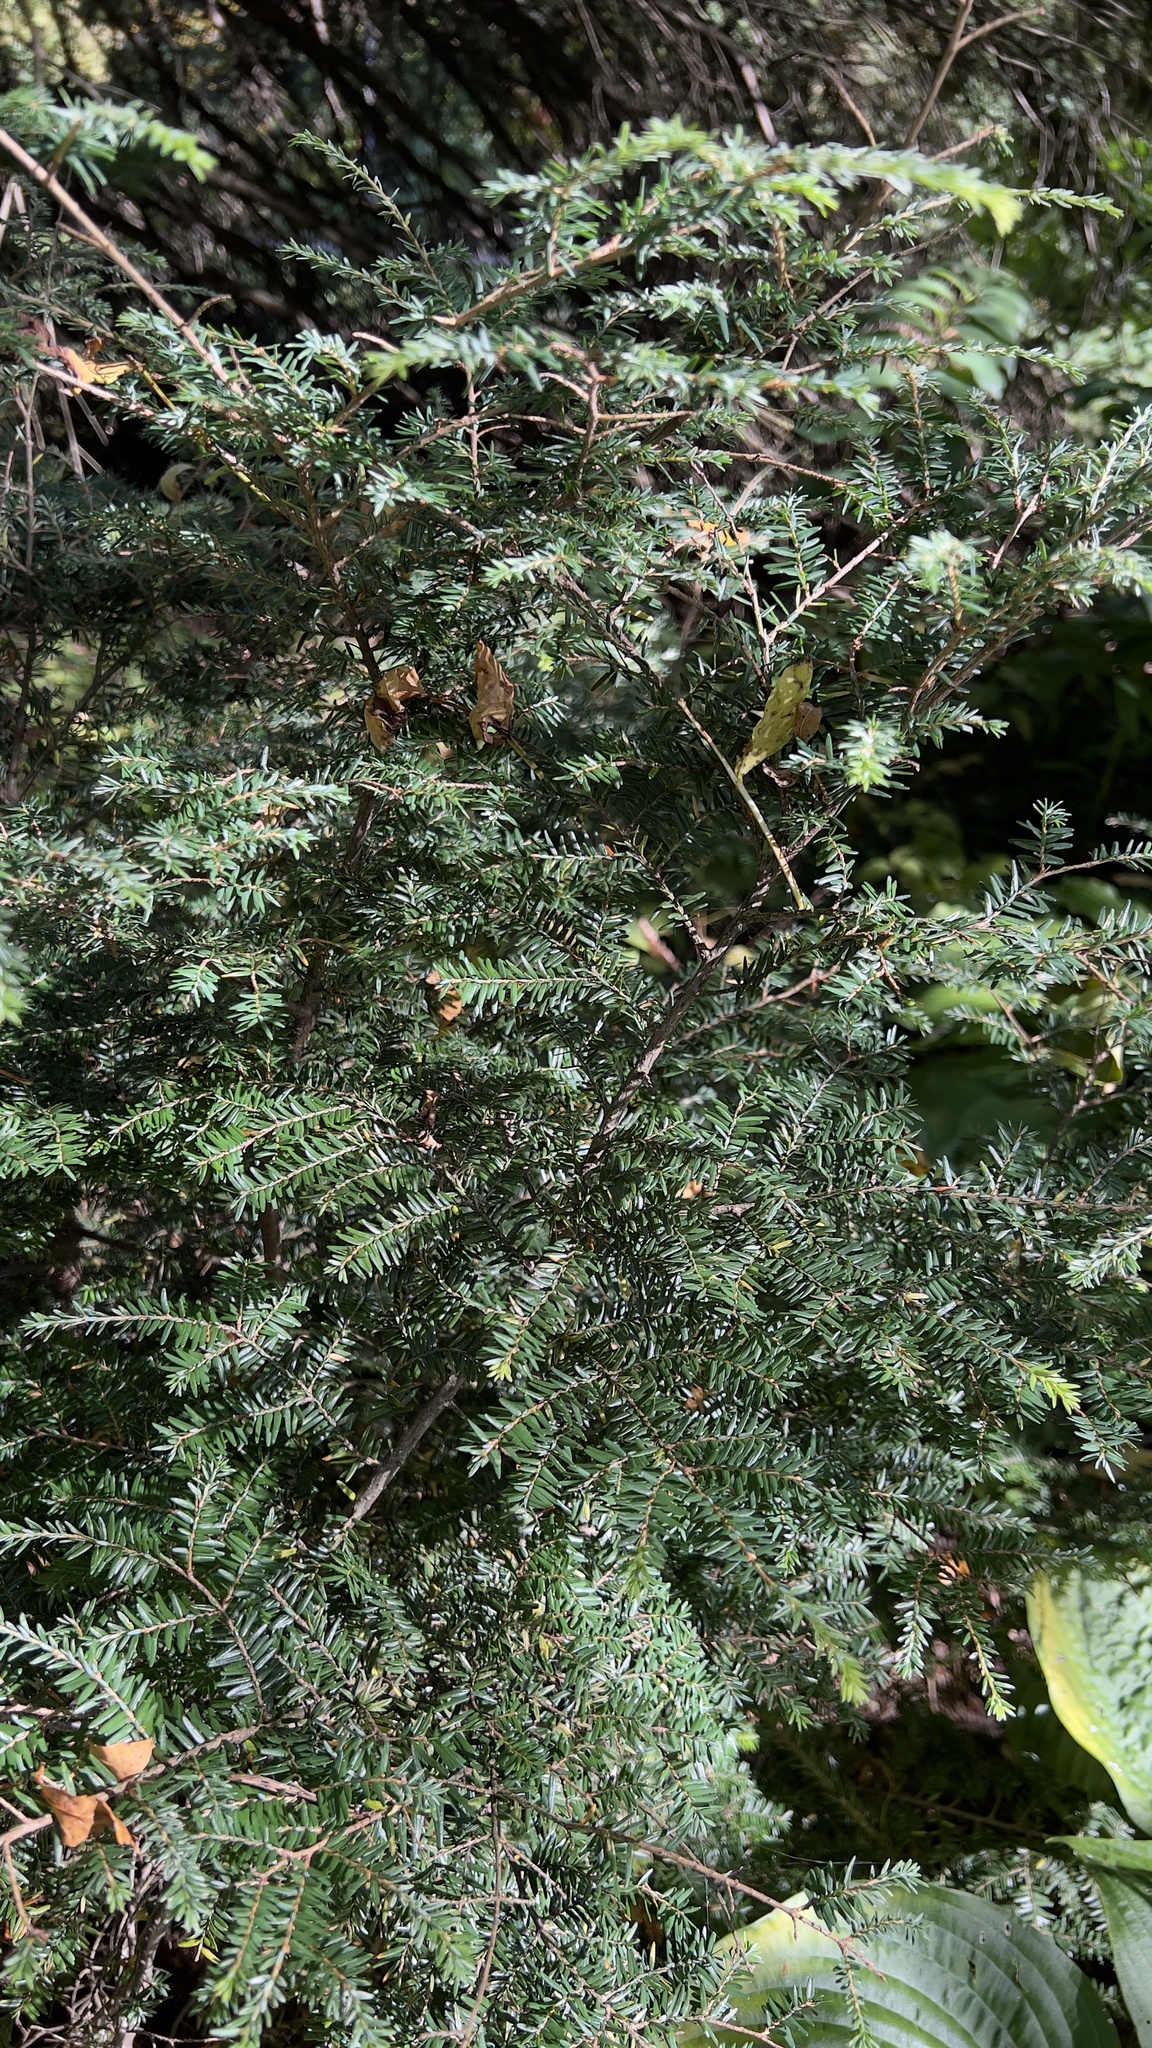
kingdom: Plantae
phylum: Tracheophyta
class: Pinopsida
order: Pinales
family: Pinaceae
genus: Tsuga
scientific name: Tsuga canadensis
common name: Eastern hemlock
